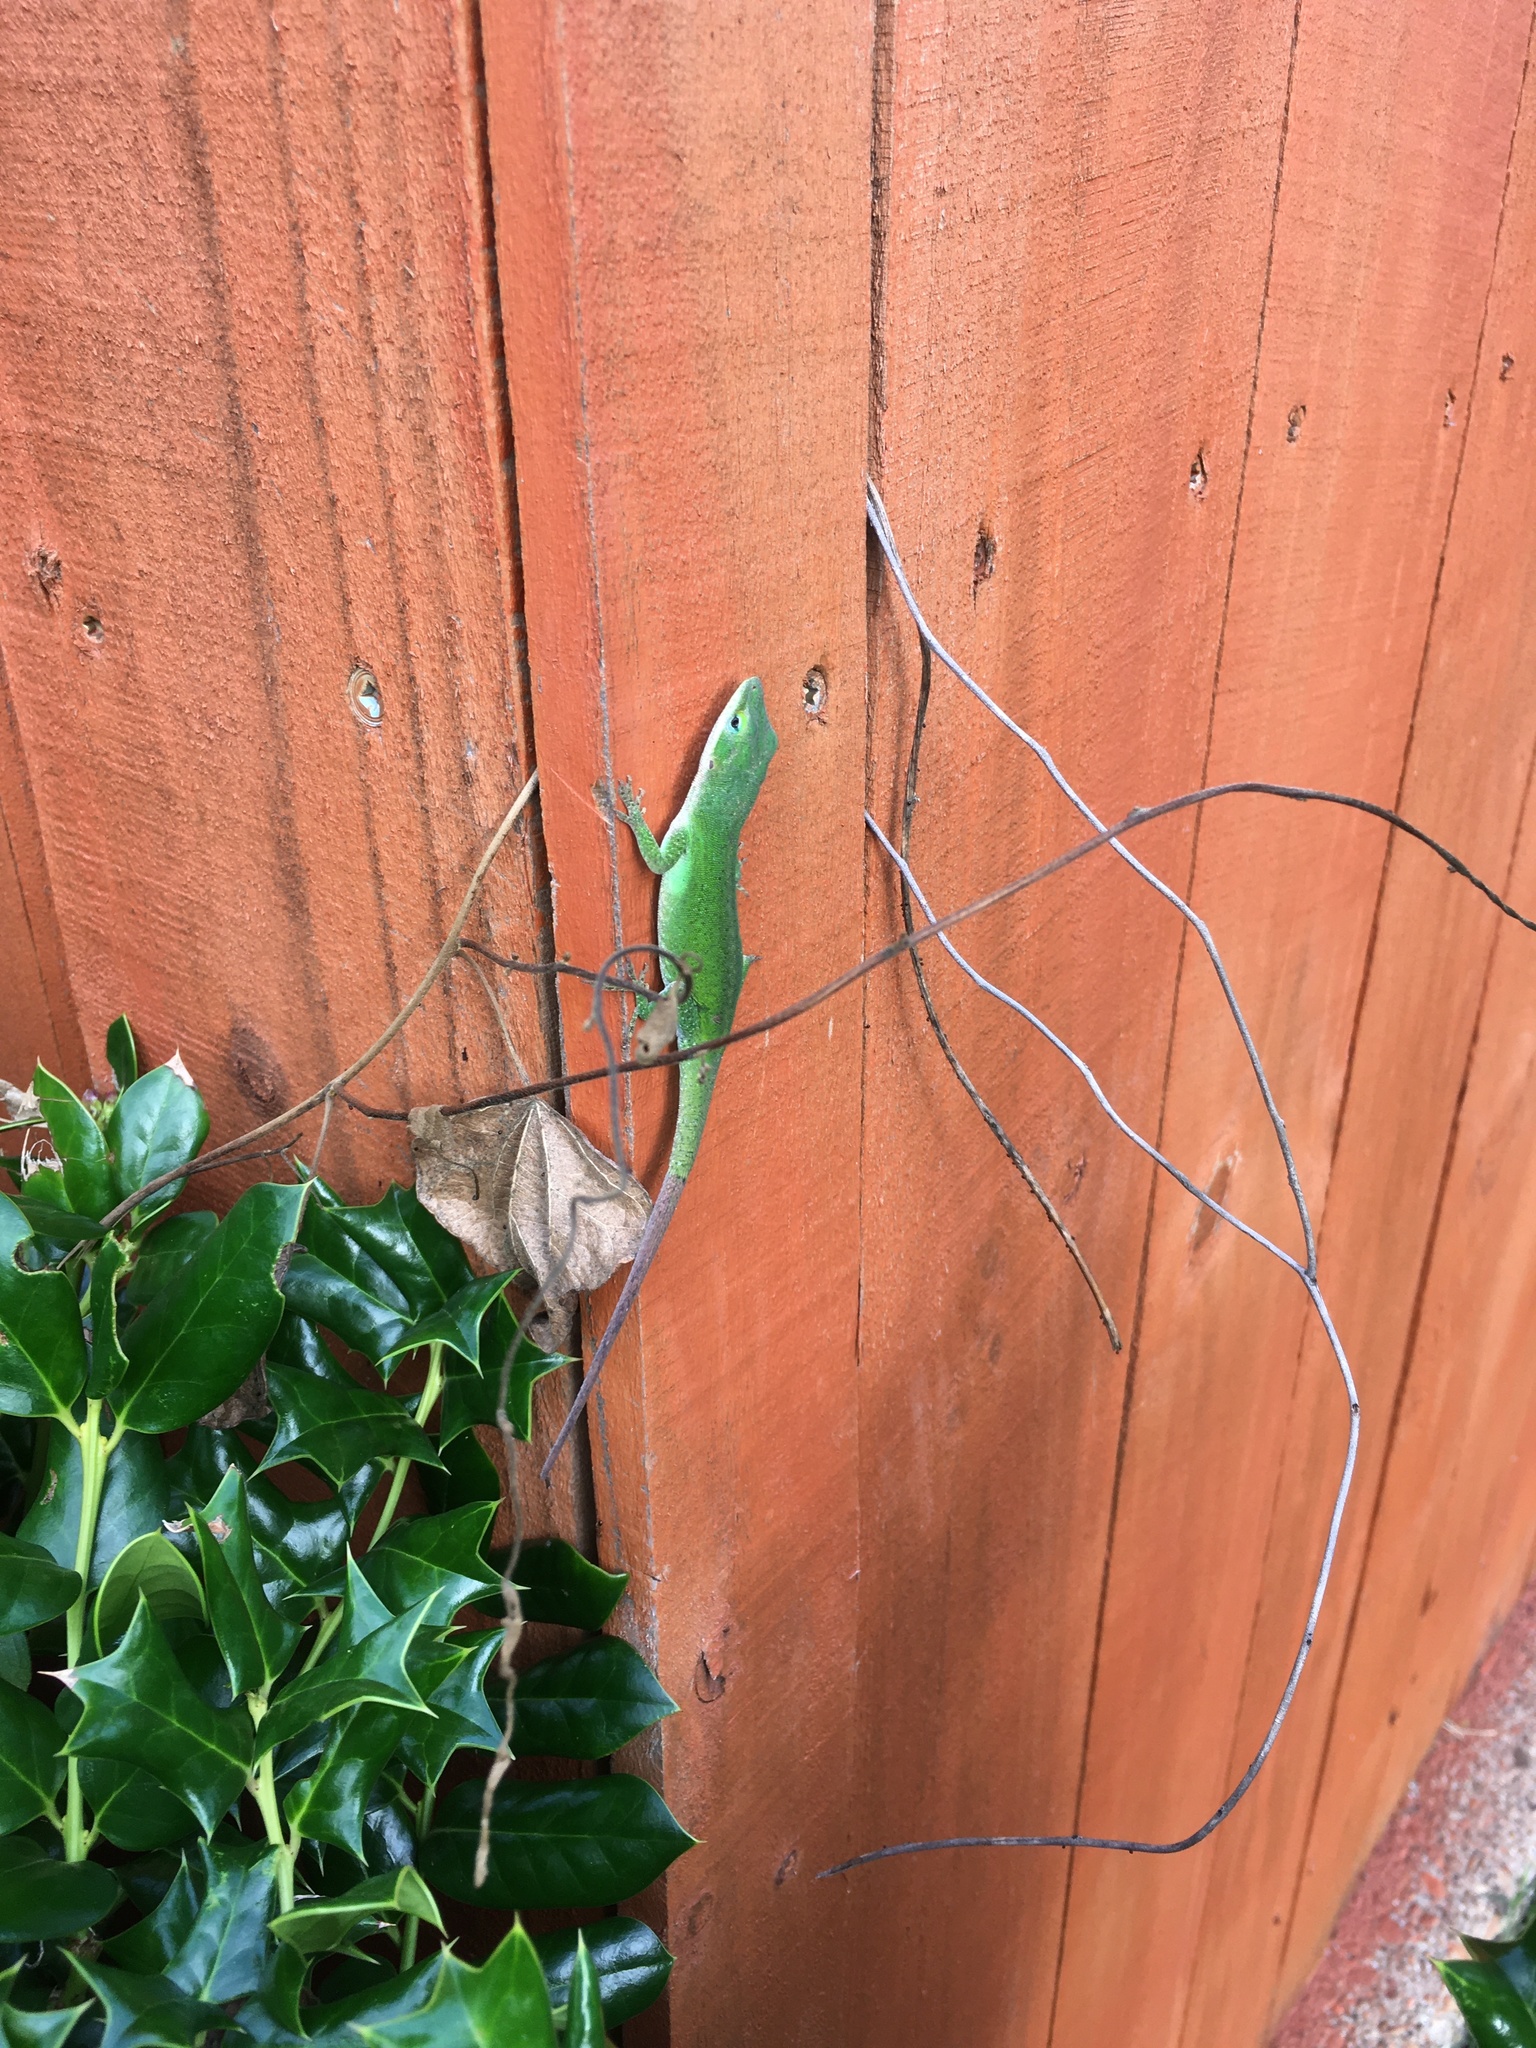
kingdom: Animalia
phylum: Chordata
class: Squamata
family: Dactyloidae
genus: Anolis
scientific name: Anolis carolinensis
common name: Green anole
